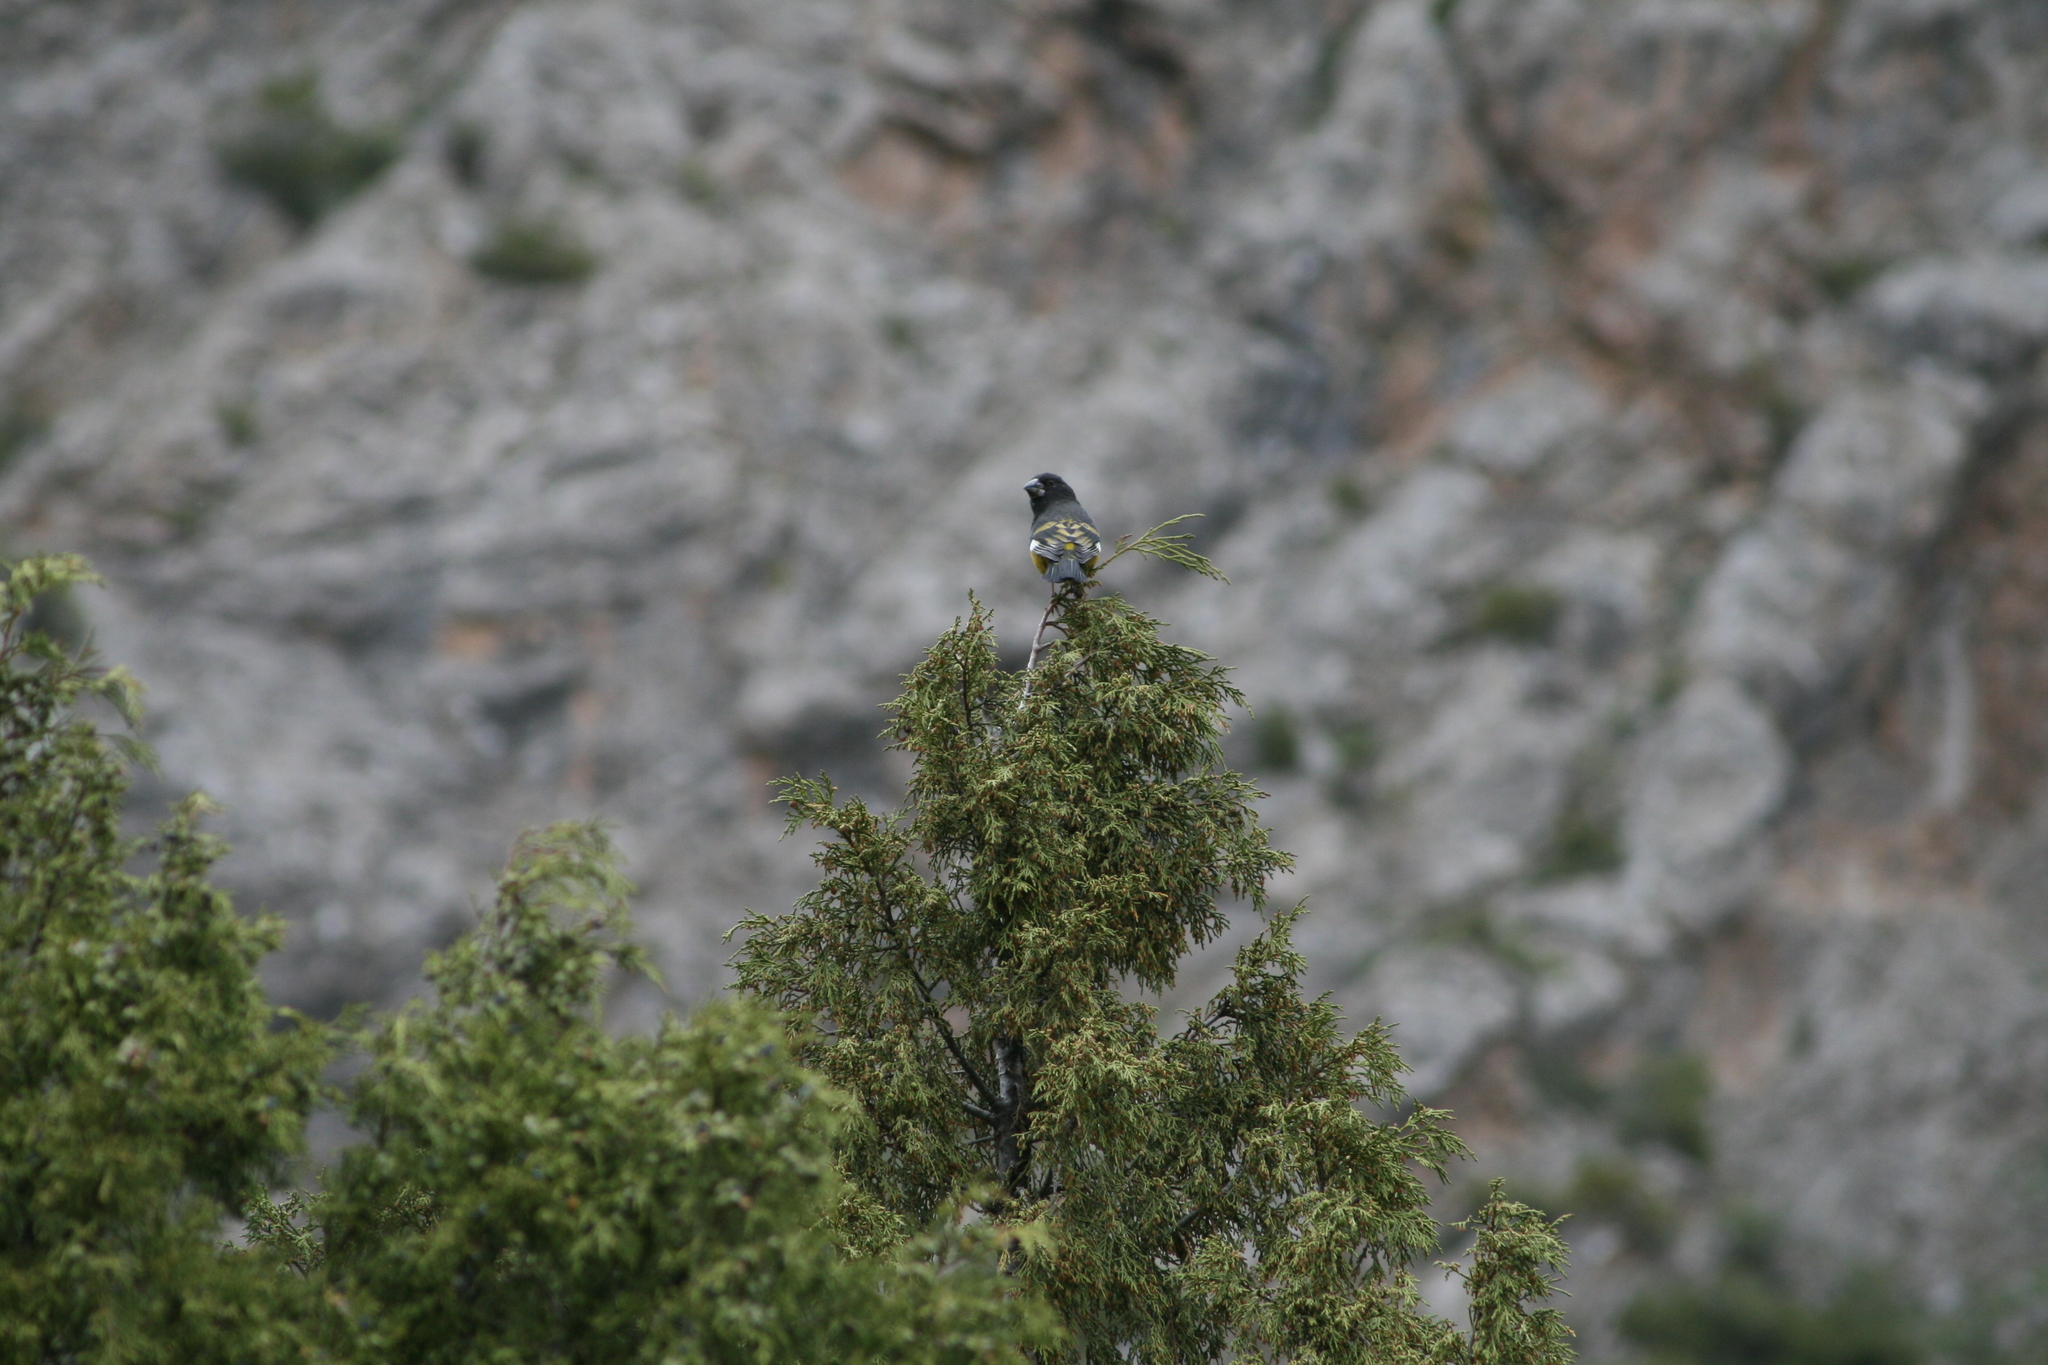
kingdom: Animalia
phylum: Chordata
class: Aves
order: Passeriformes
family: Fringillidae
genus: Mycerobas
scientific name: Mycerobas carnipes
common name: White-winged grosbeak
